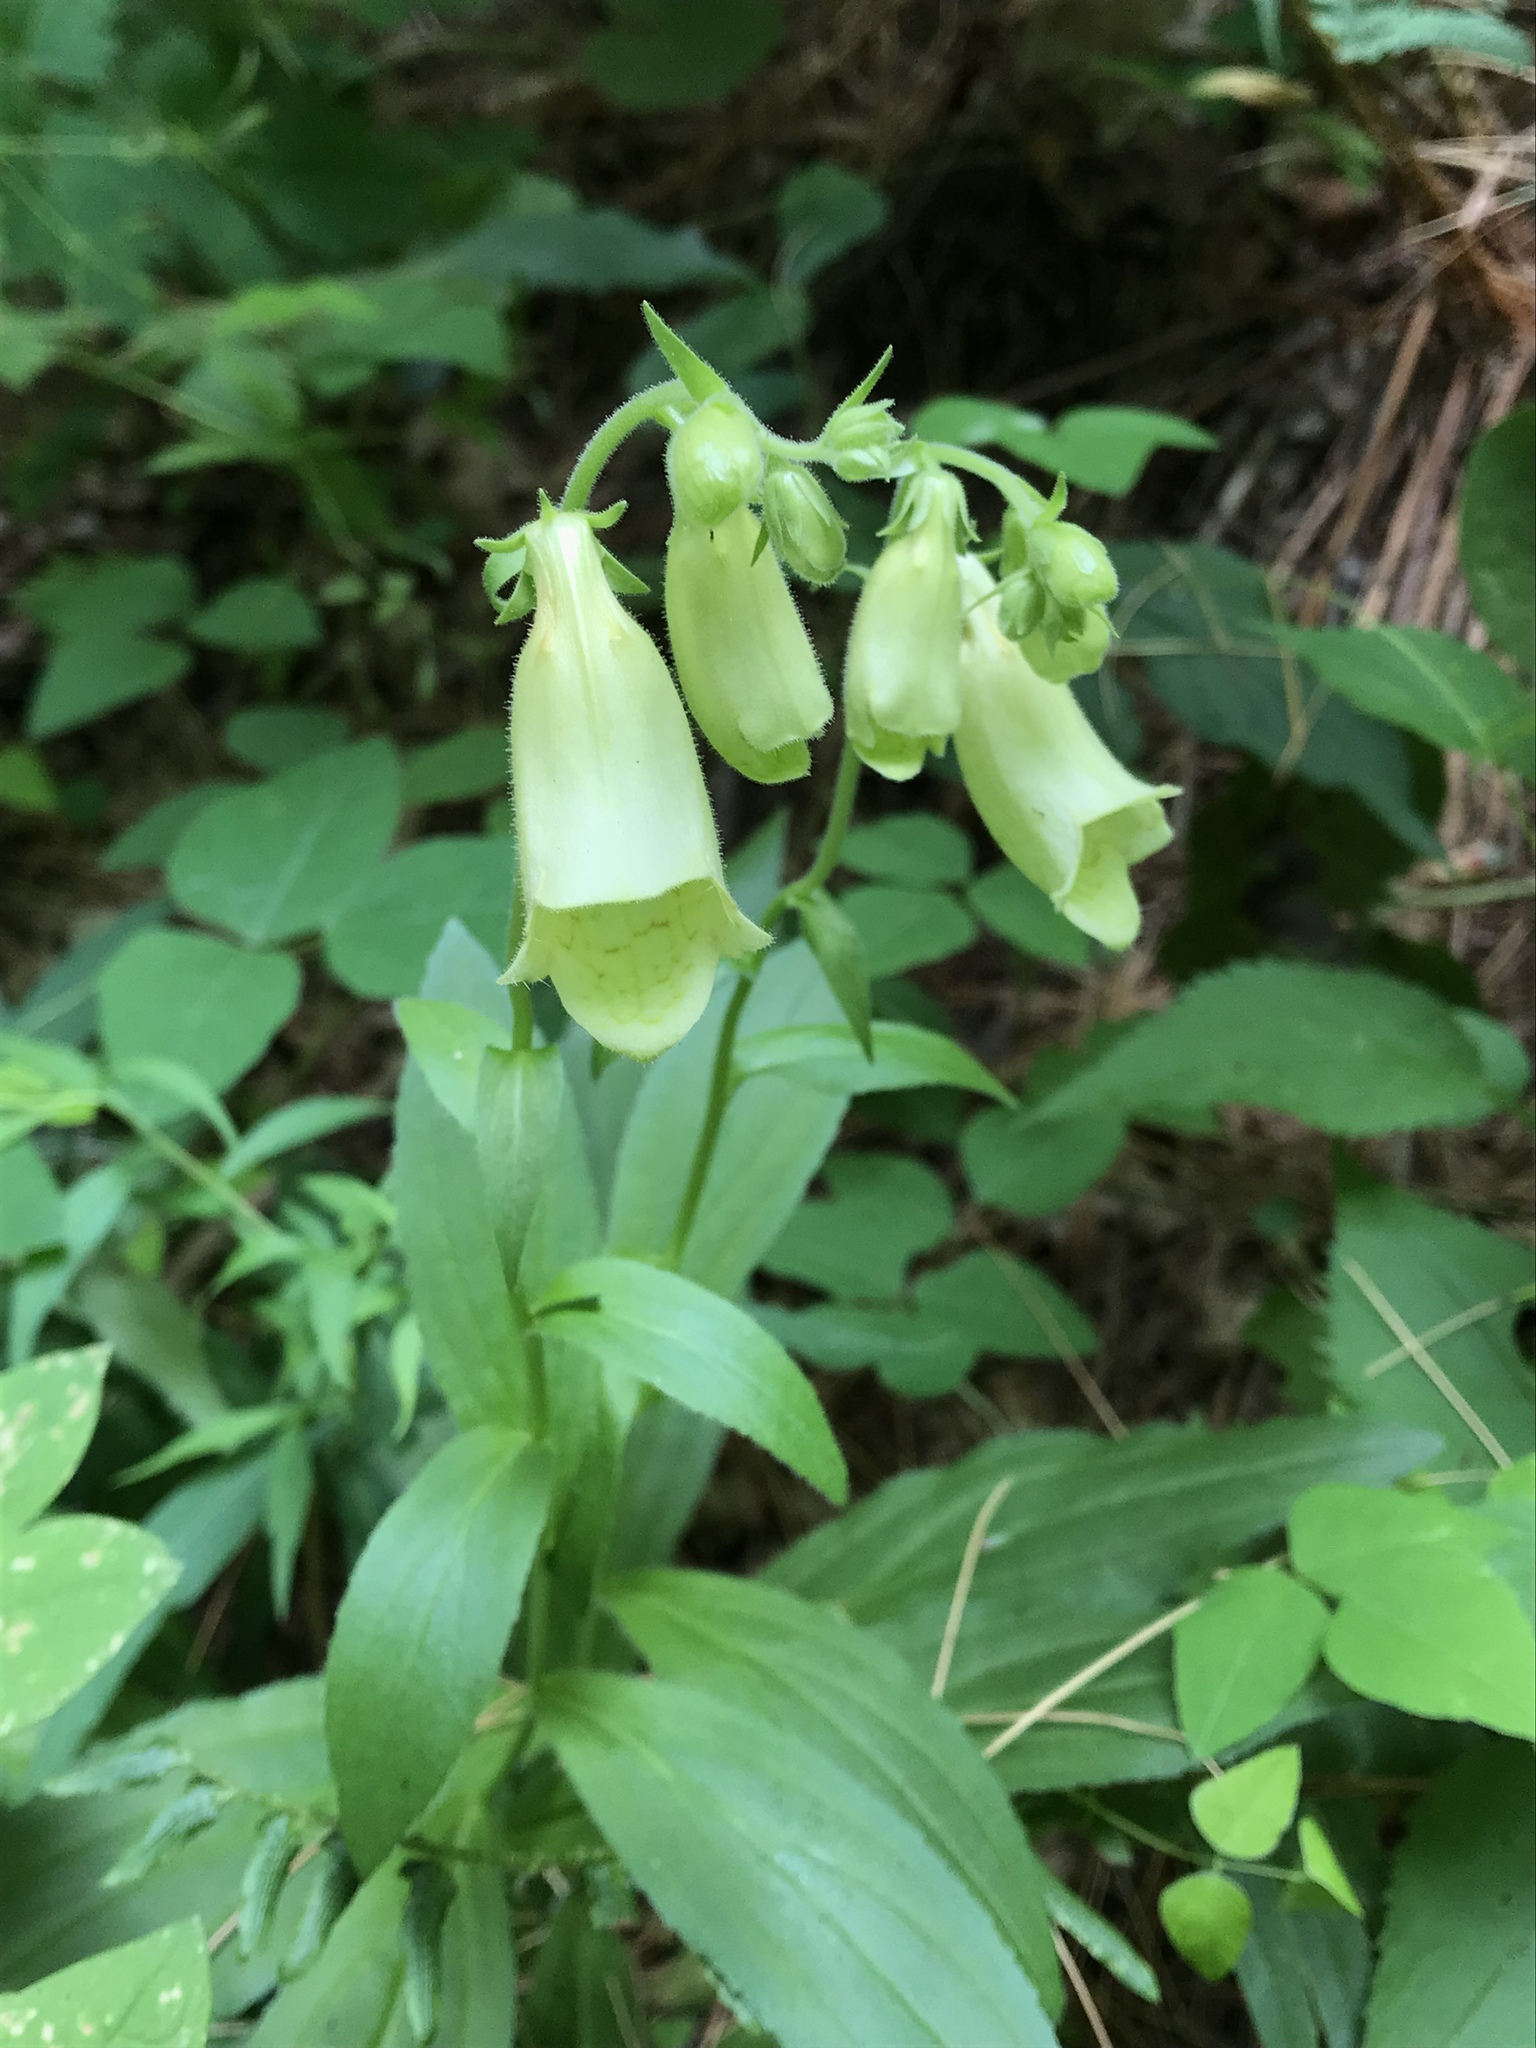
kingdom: Plantae
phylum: Tracheophyta
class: Magnoliopsida
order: Lamiales
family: Plantaginaceae
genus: Digitalis
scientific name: Digitalis grandiflora
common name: Yellow foxglove
